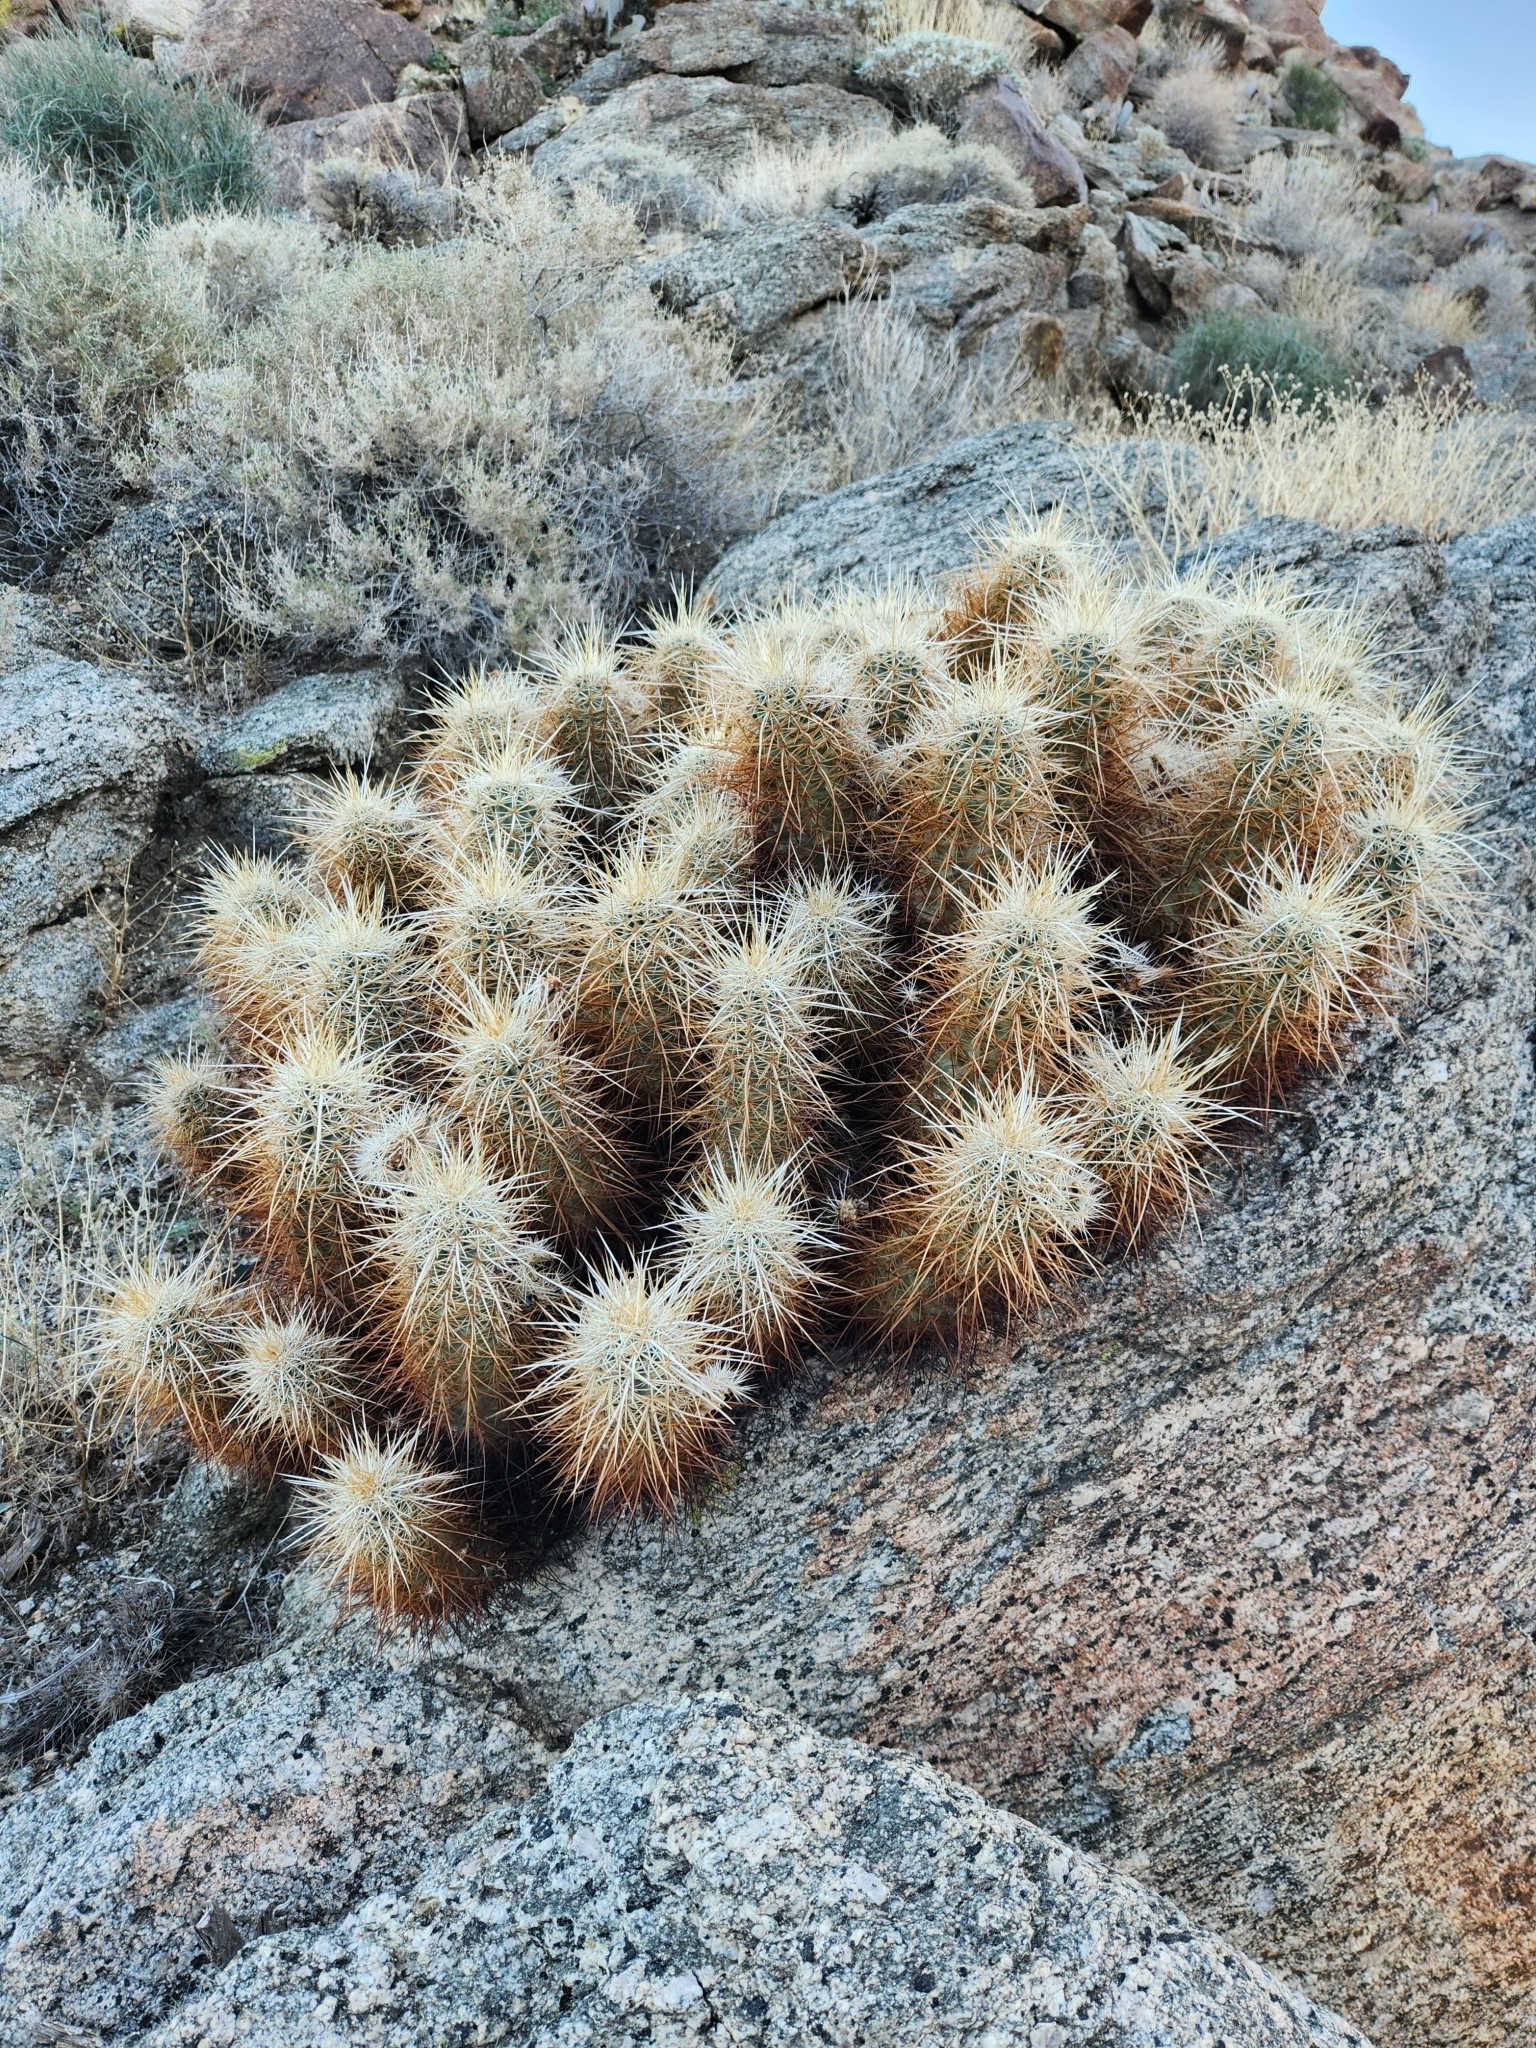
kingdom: Plantae
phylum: Tracheophyta
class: Magnoliopsida
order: Caryophyllales
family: Cactaceae
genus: Echinocereus
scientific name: Echinocereus engelmannii
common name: Engelmann's hedgehog cactus
